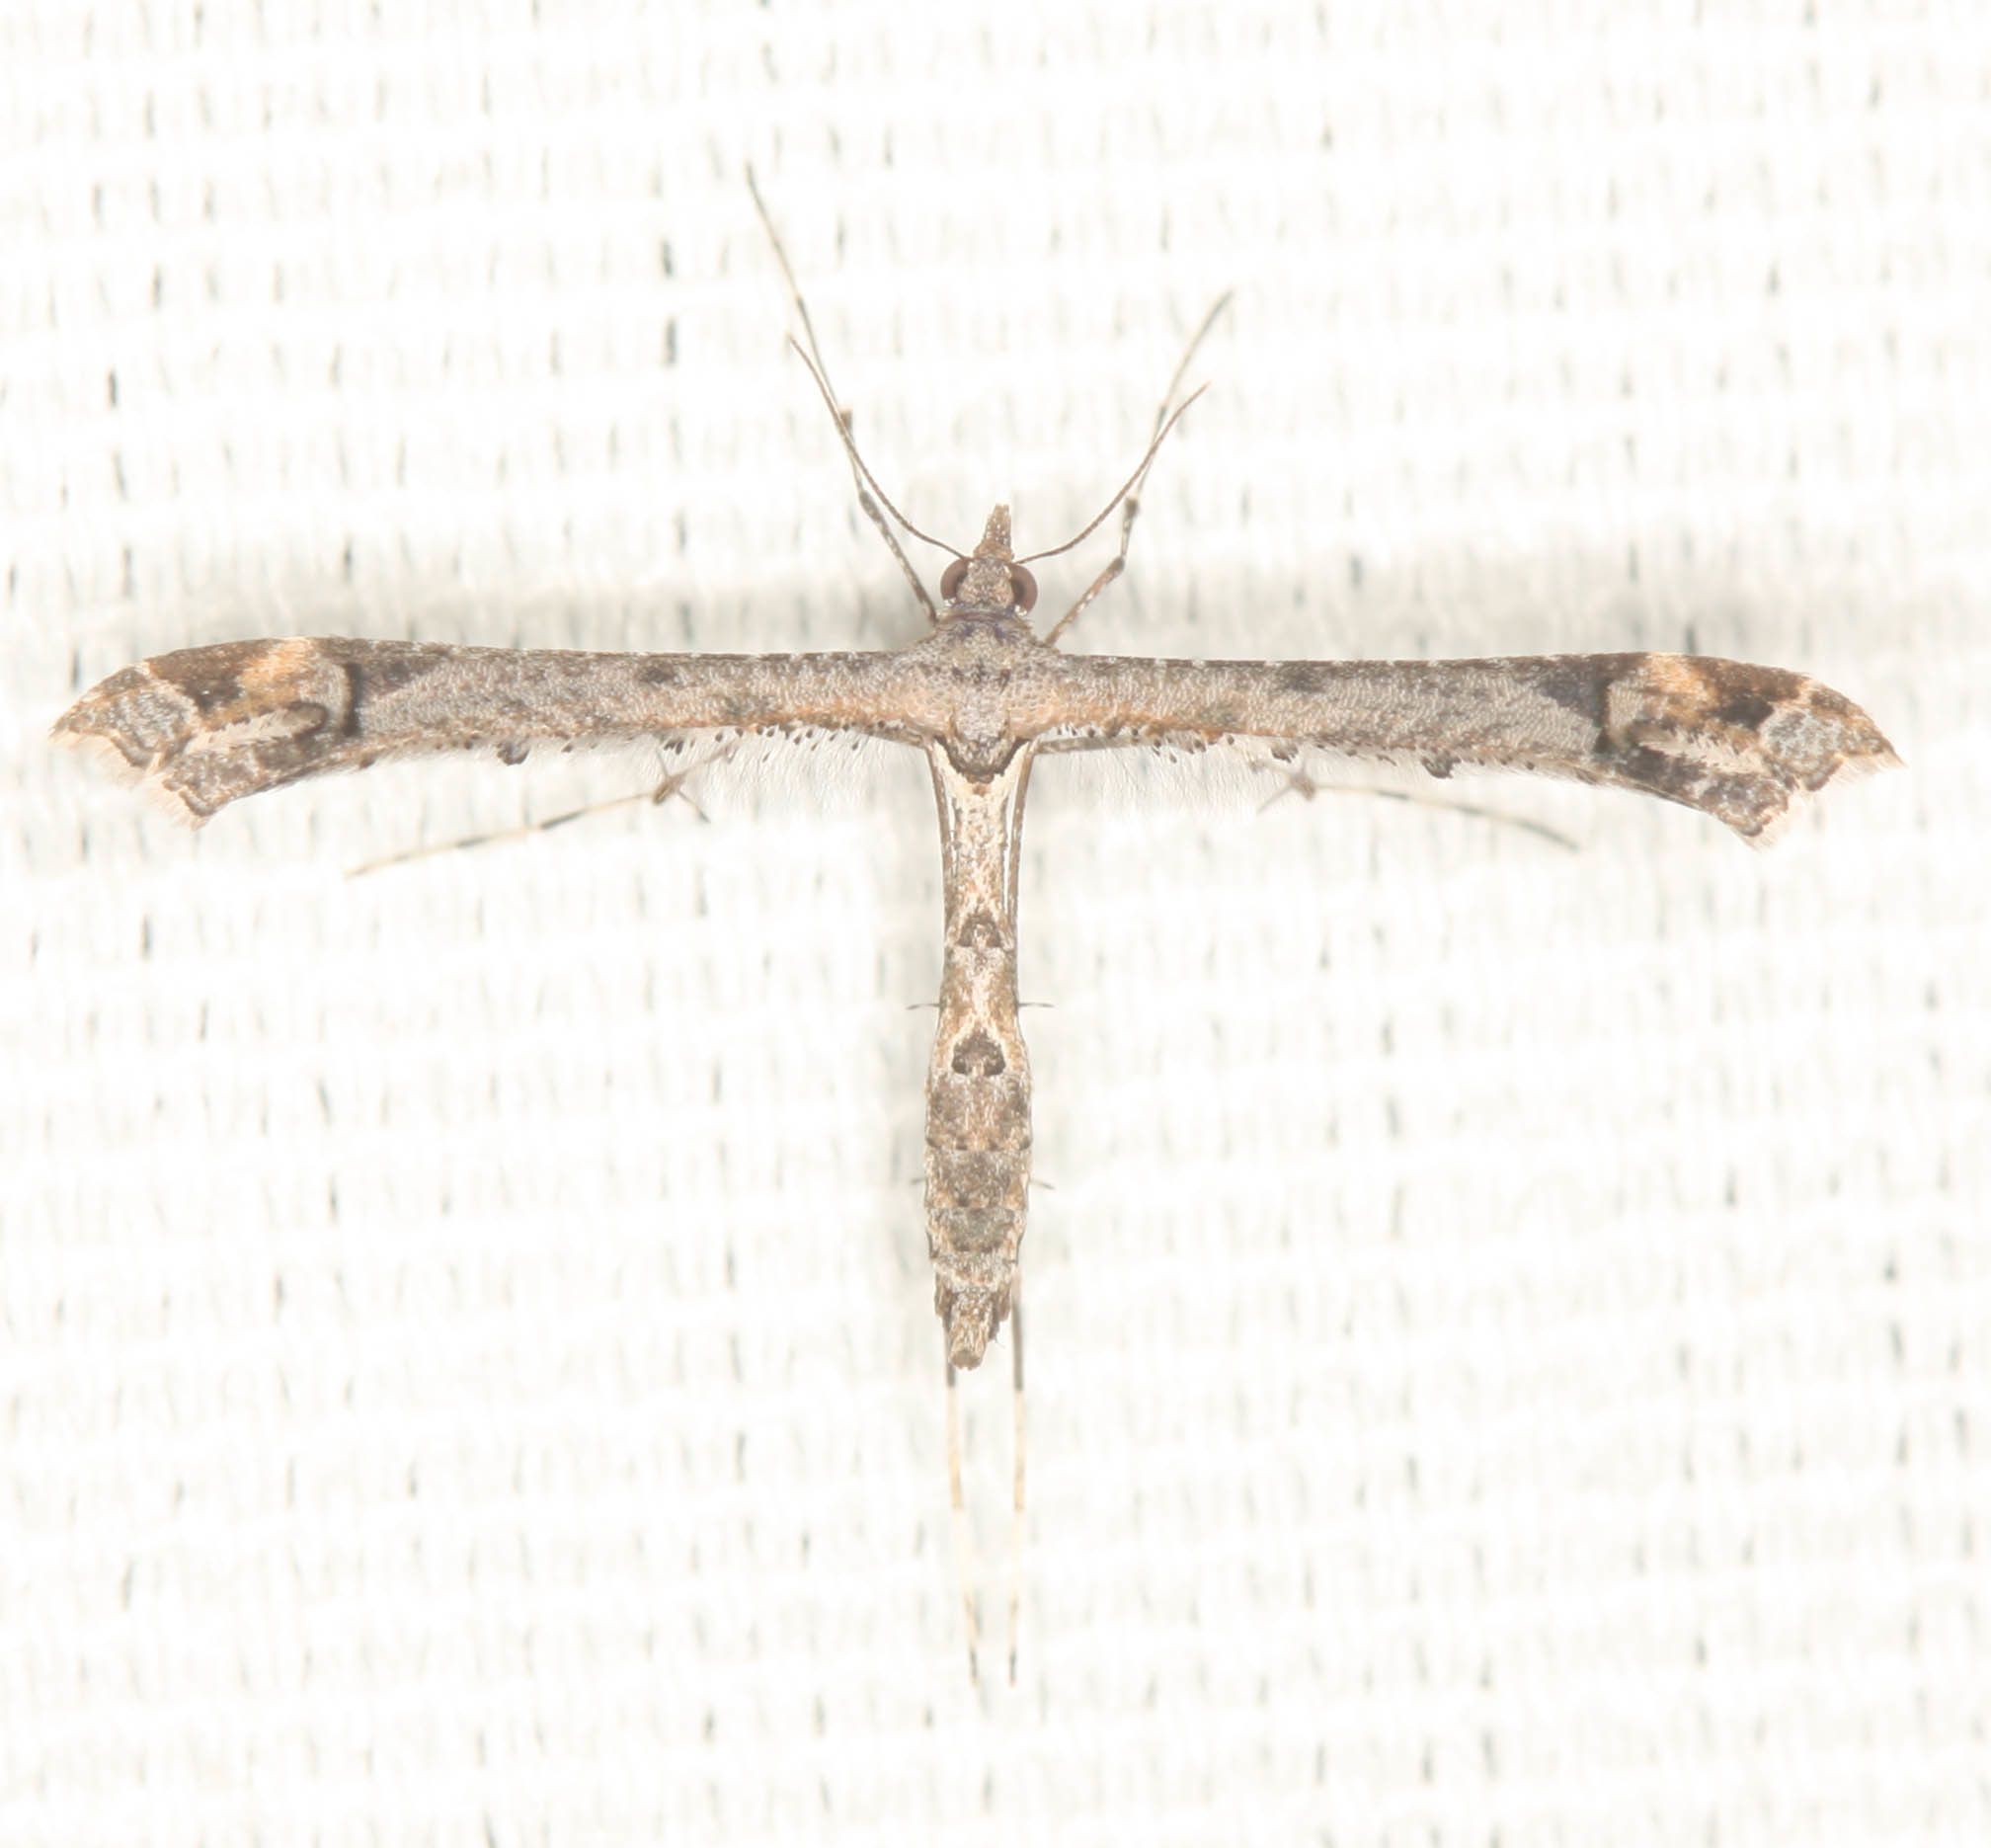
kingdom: Animalia
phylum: Arthropoda
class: Insecta
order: Lepidoptera
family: Pterophoridae
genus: Anstenoptilia
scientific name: Anstenoptilia marmarodactyla
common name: Moth
